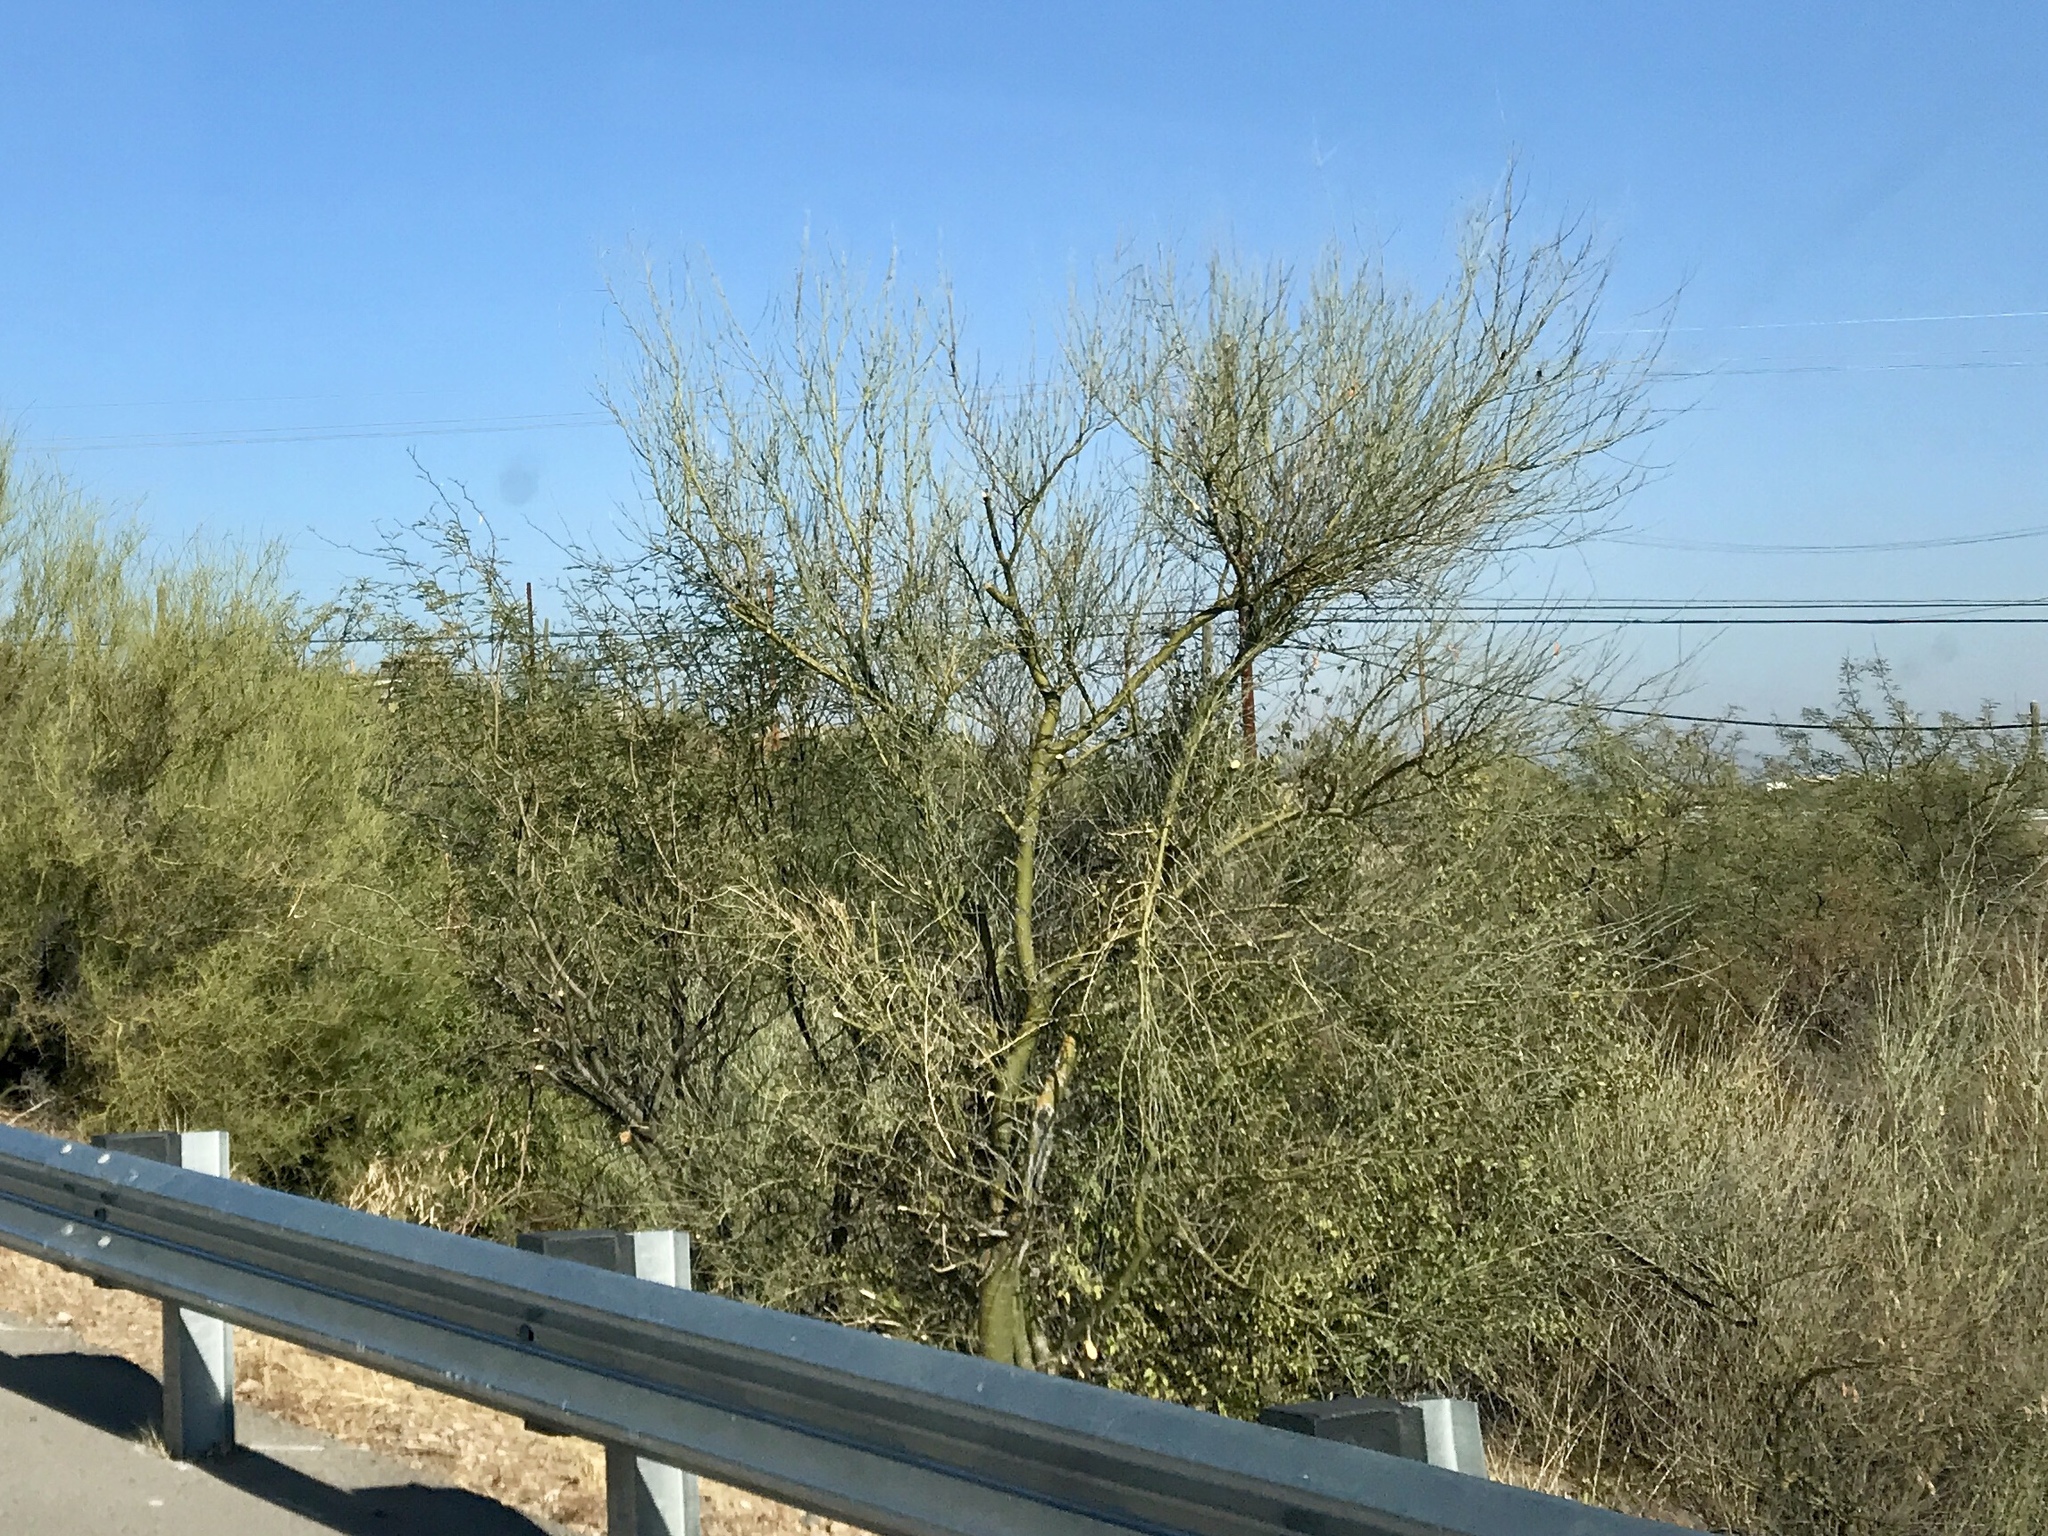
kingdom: Plantae
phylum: Tracheophyta
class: Magnoliopsida
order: Fabales
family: Fabaceae
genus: Parkinsonia
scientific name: Parkinsonia microphylla
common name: Yellow paloverde
